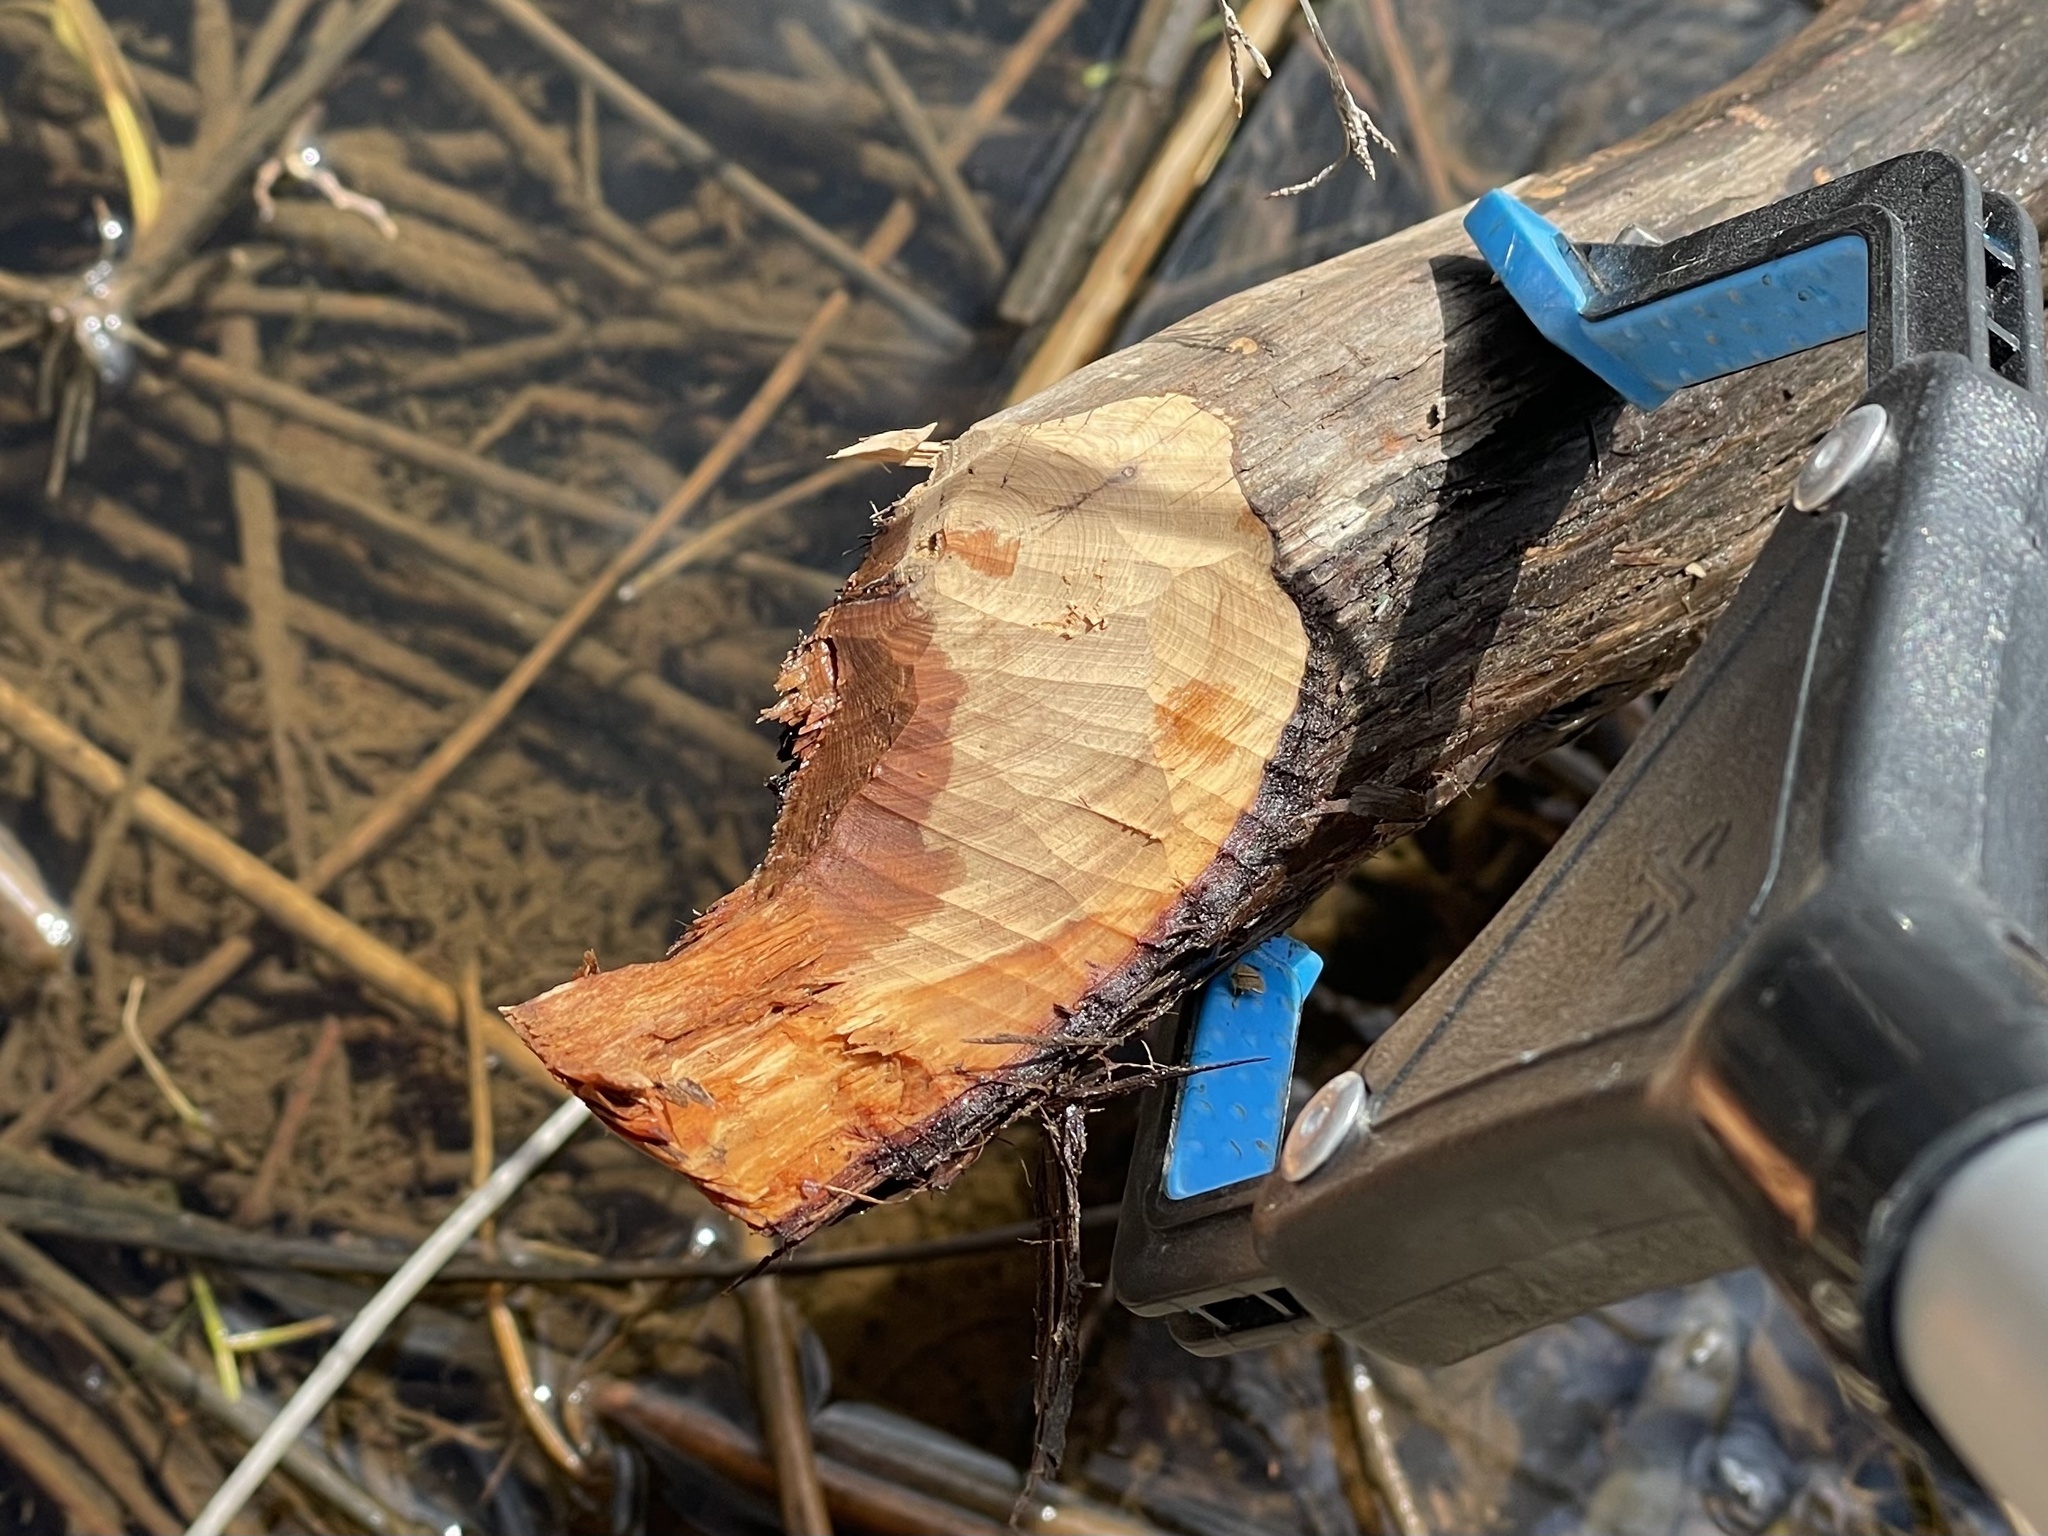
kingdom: Animalia
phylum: Chordata
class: Mammalia
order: Rodentia
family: Castoridae
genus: Castor
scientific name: Castor canadensis
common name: American beaver
